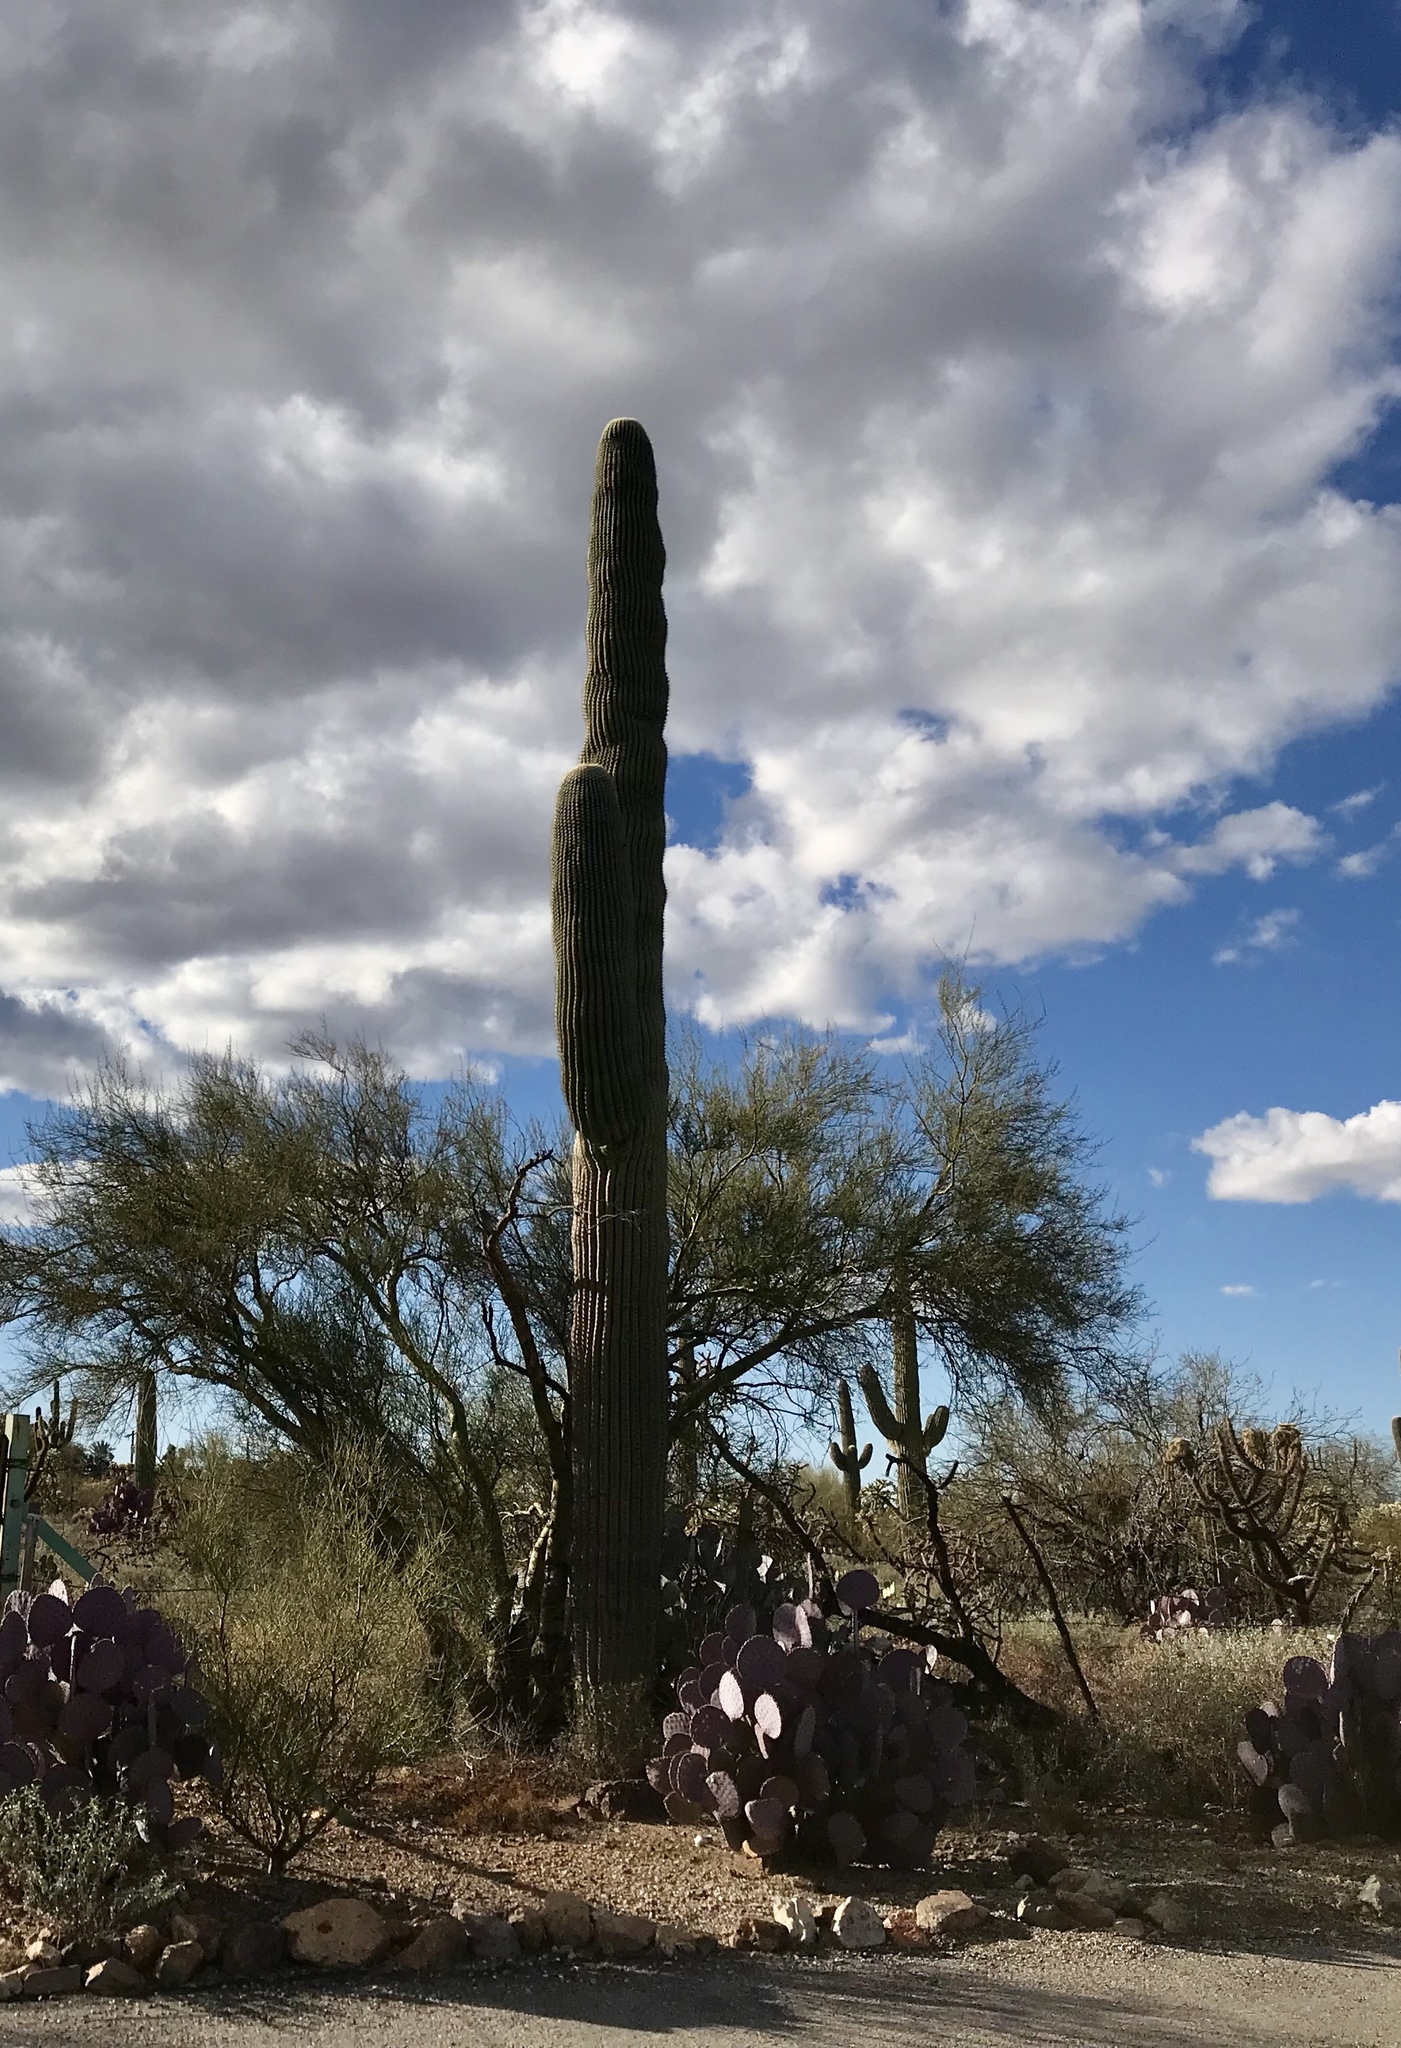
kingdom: Plantae
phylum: Tracheophyta
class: Magnoliopsida
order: Caryophyllales
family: Cactaceae
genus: Carnegiea
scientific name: Carnegiea gigantea
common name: Saguaro
